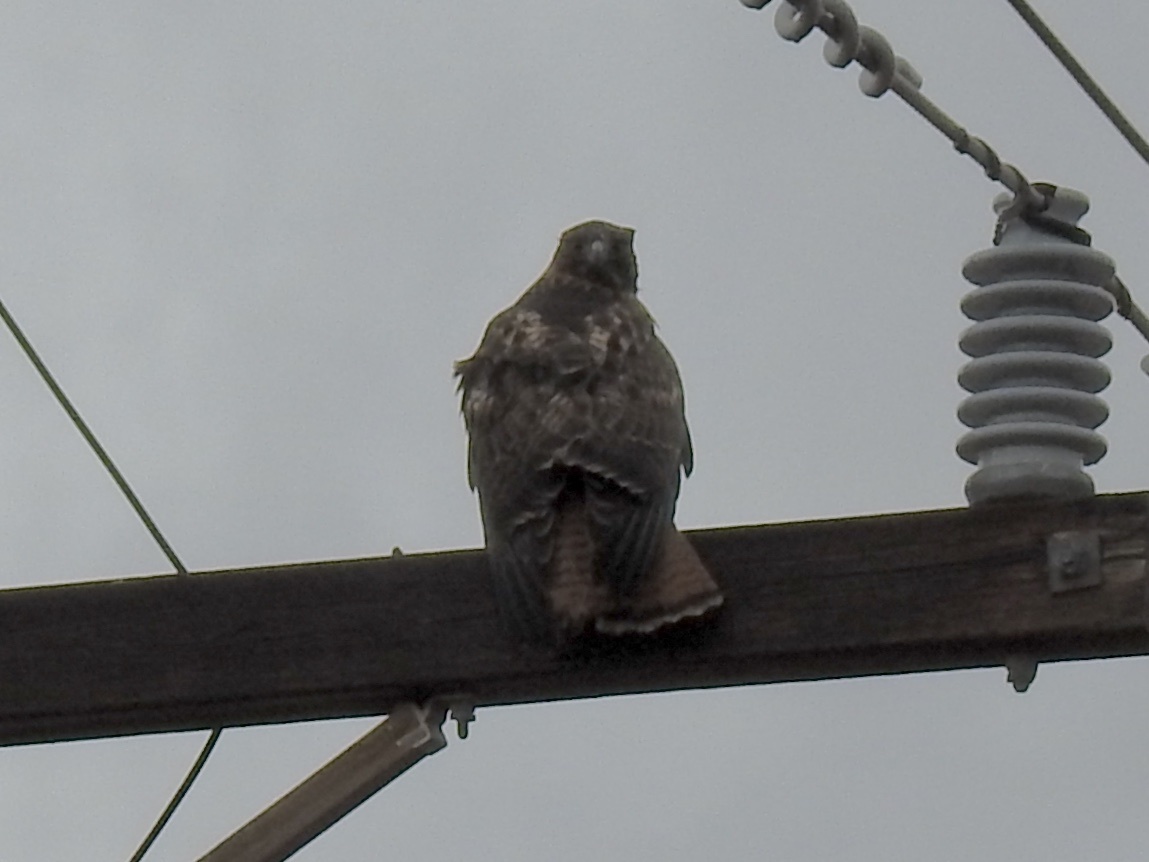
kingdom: Animalia
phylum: Chordata
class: Aves
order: Accipitriformes
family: Accipitridae
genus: Buteo
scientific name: Buteo jamaicensis
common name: Red-tailed hawk
